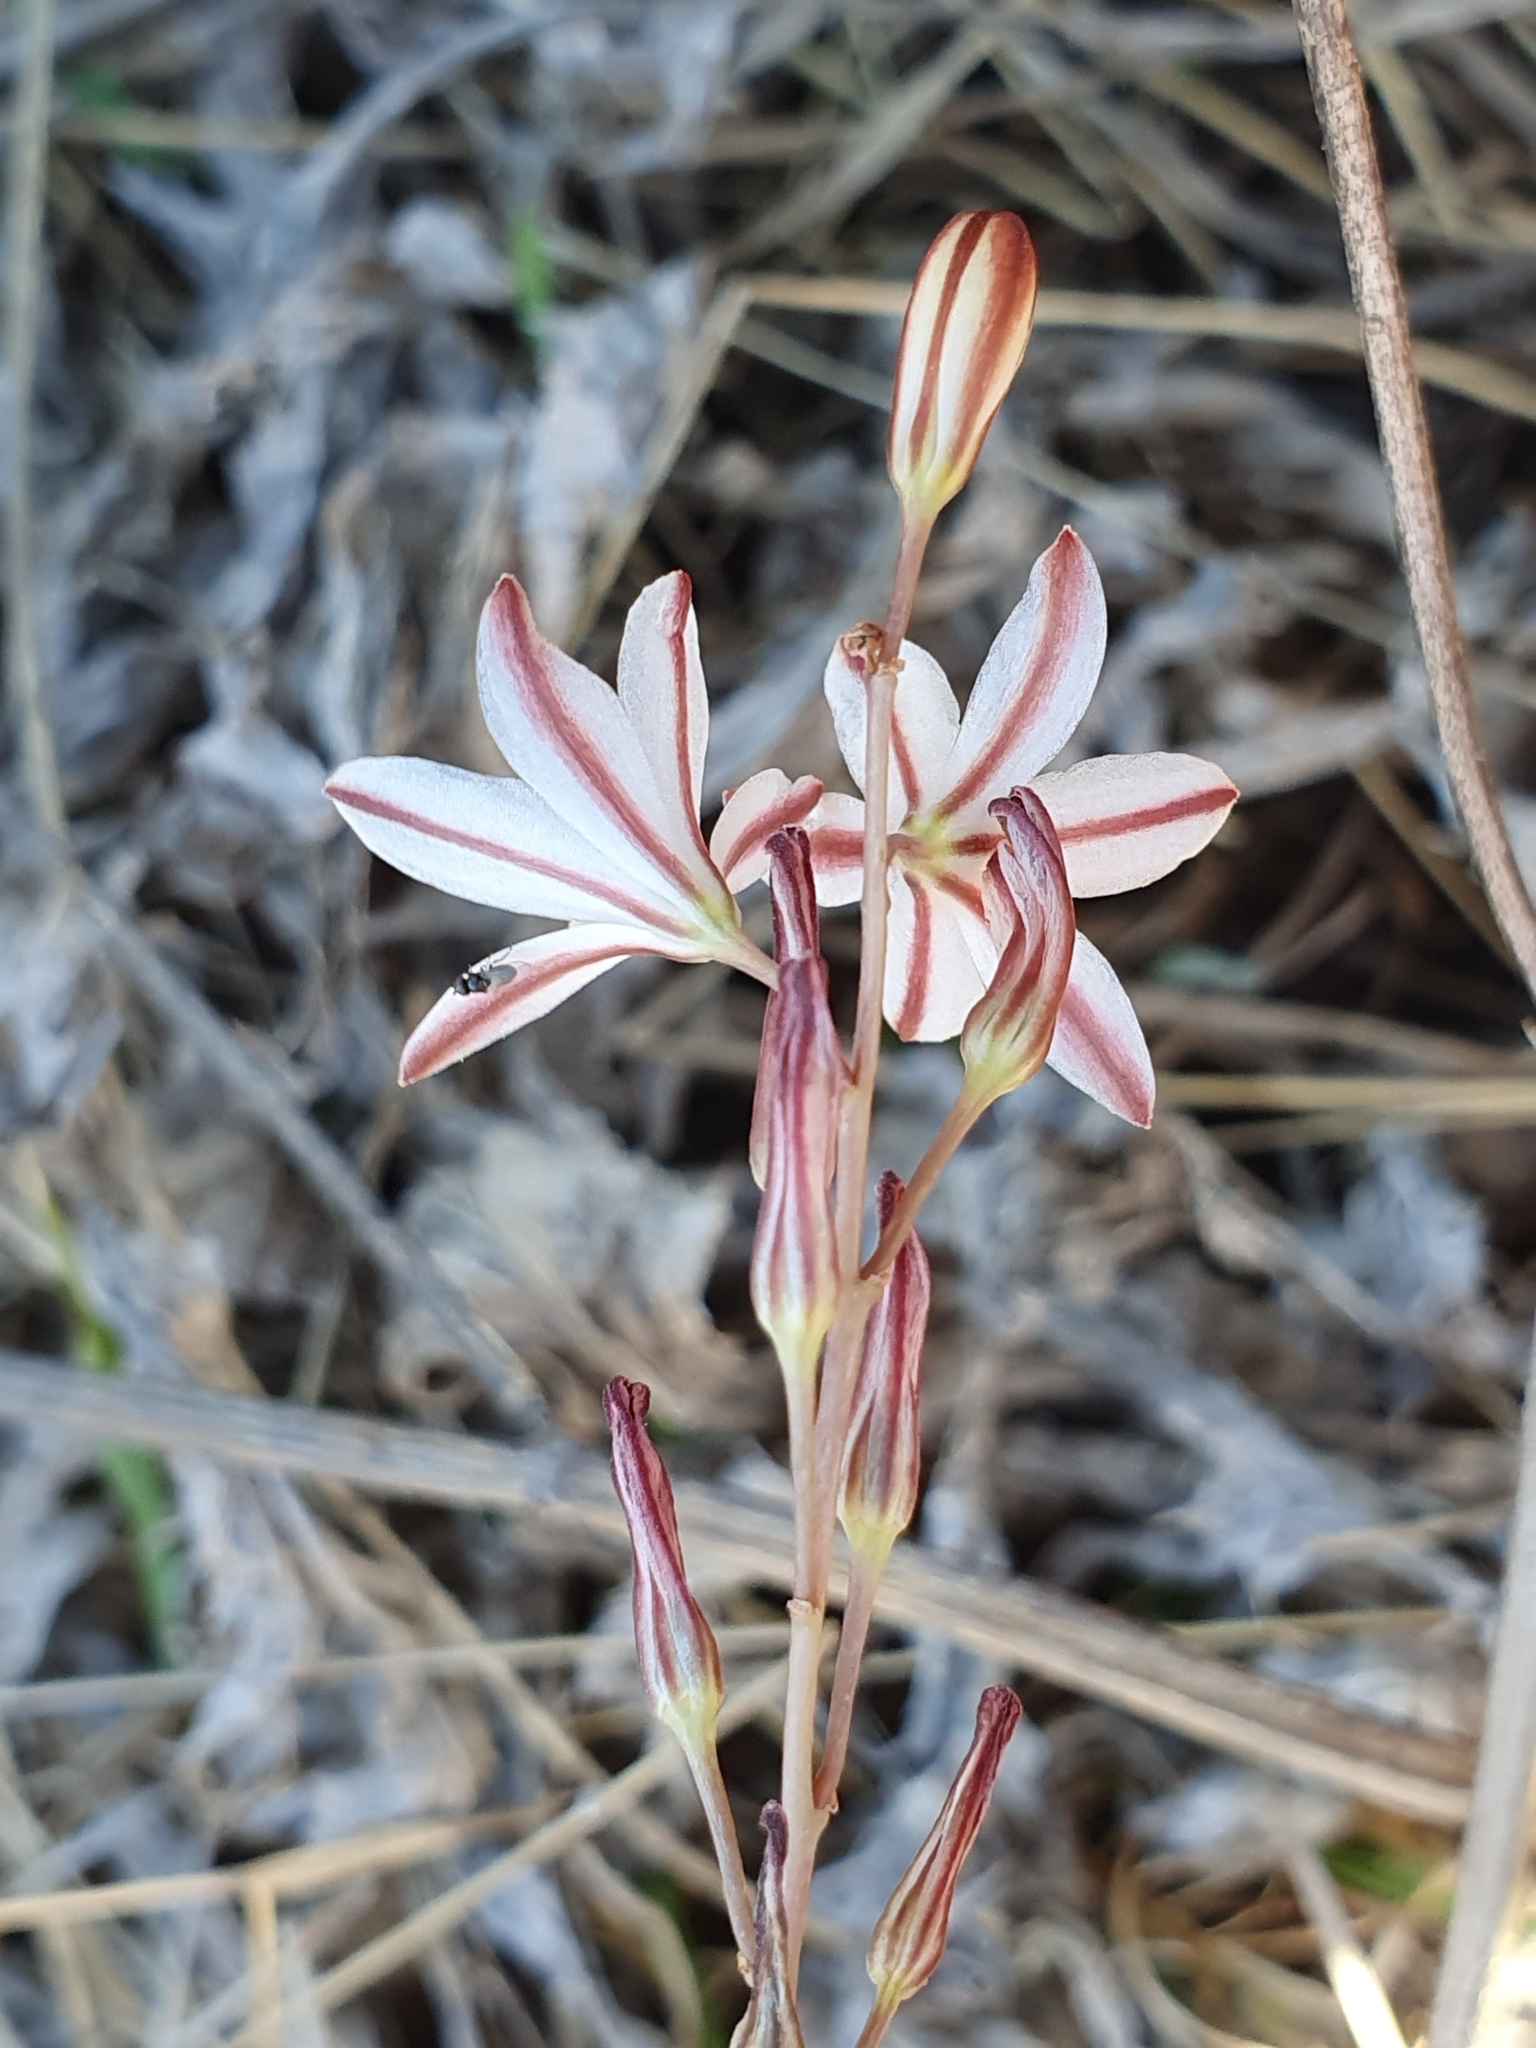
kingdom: Plantae
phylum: Tracheophyta
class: Liliopsida
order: Asparagales
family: Asparagaceae
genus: Drimia
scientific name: Drimia fugax
